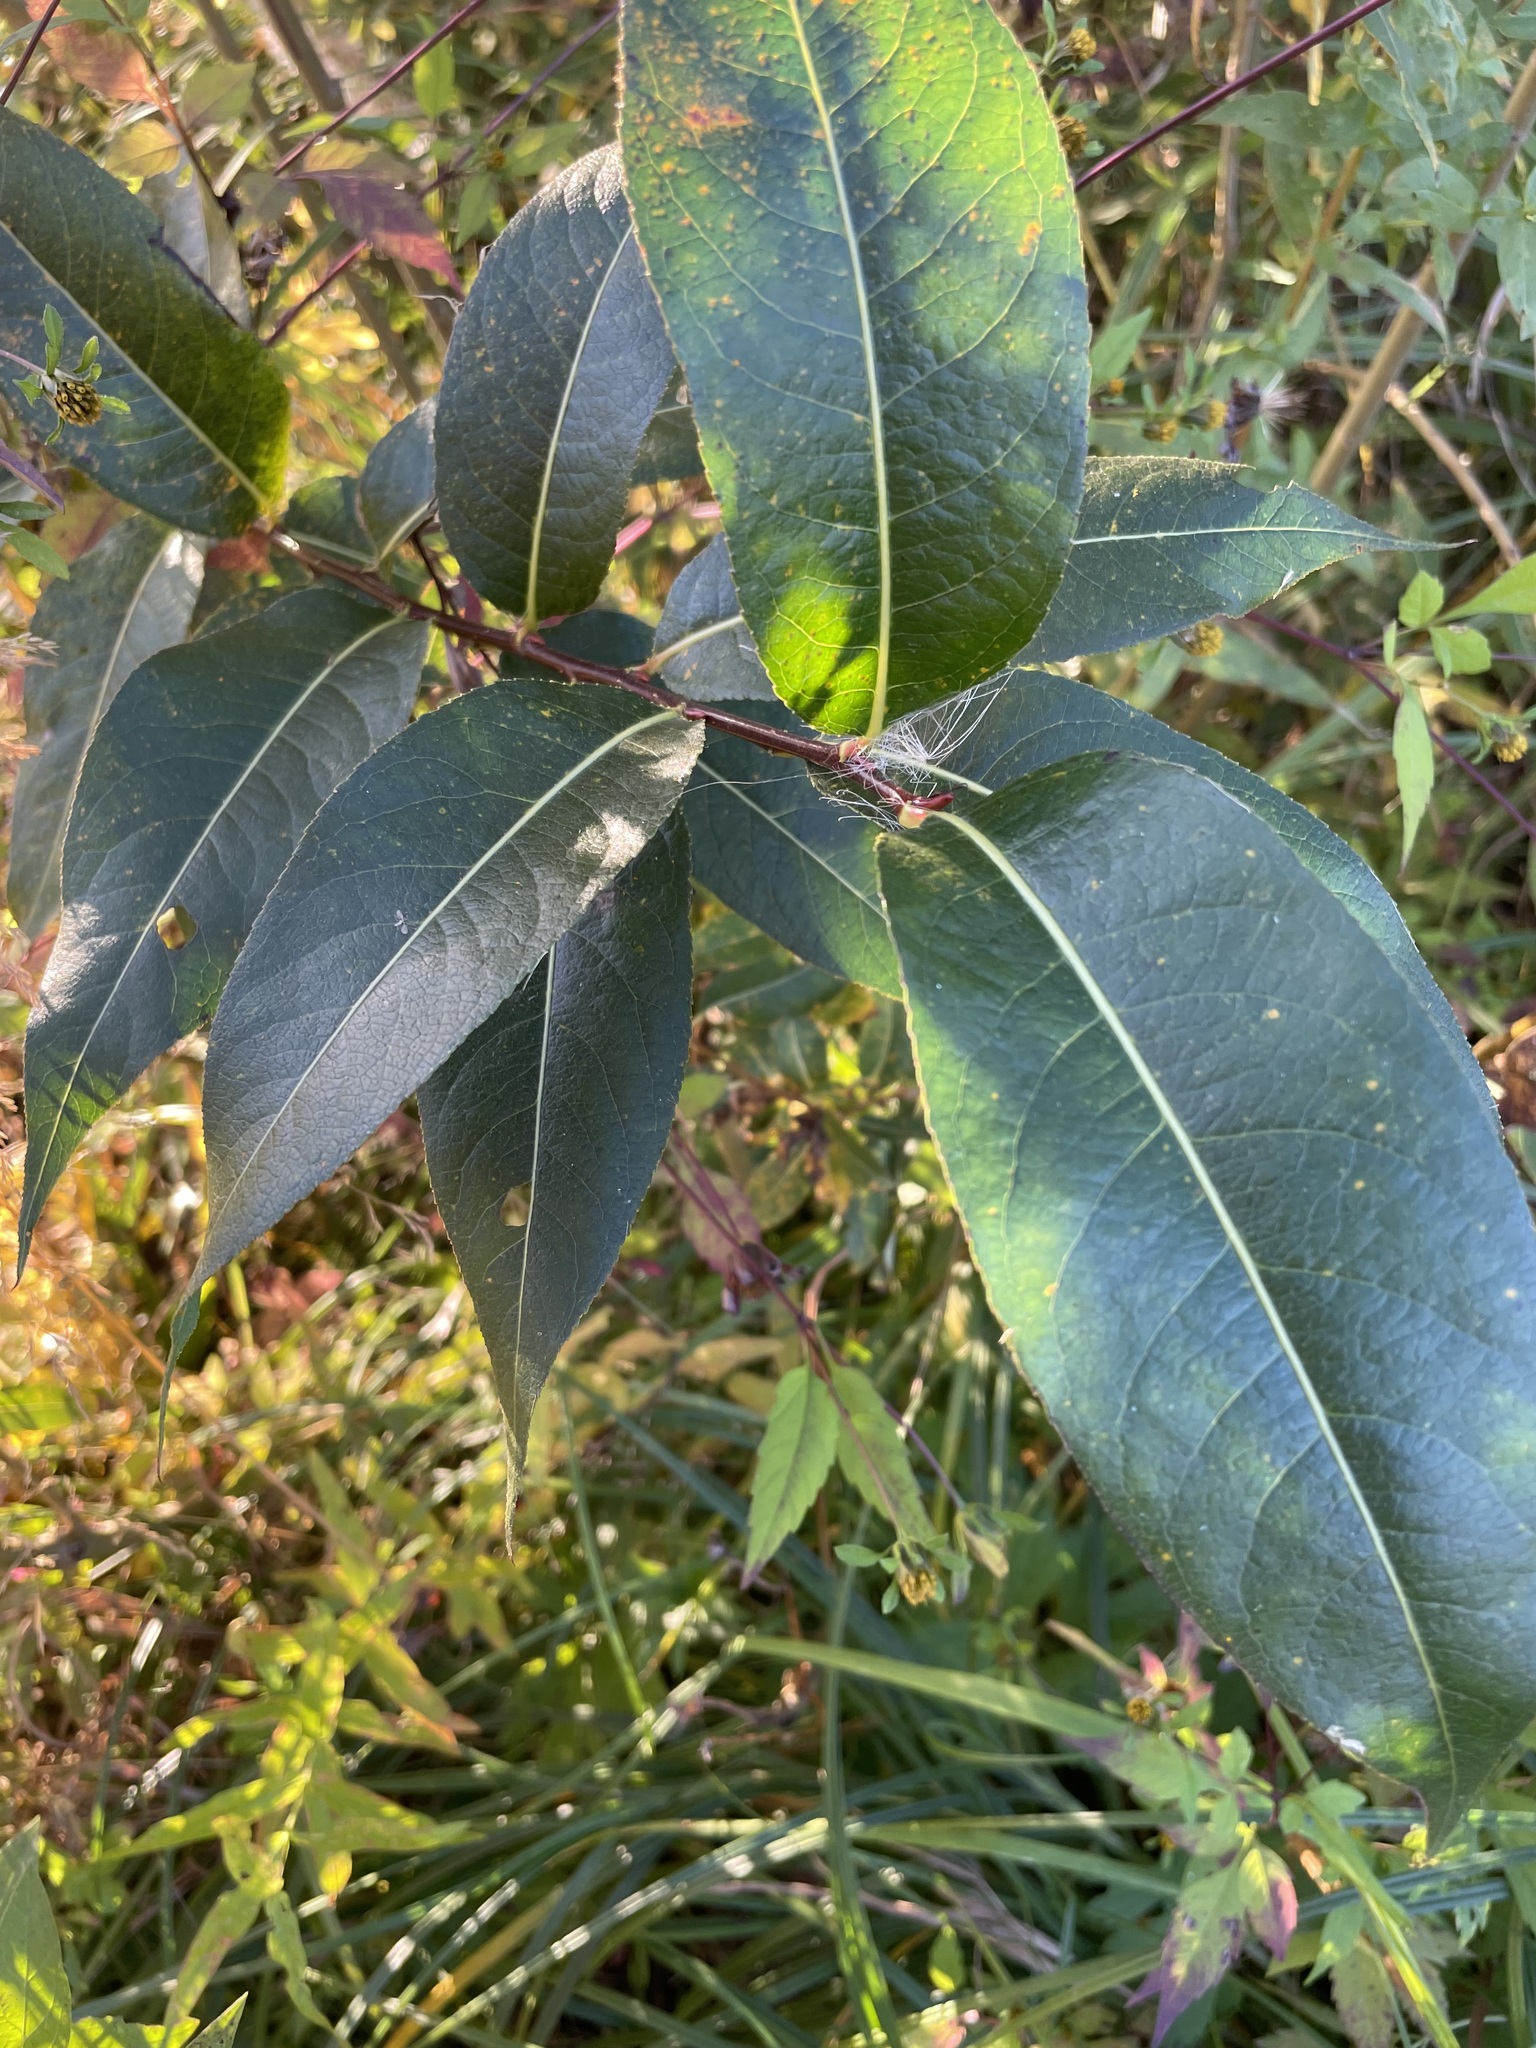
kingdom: Plantae
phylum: Tracheophyta
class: Magnoliopsida
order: Malpighiales
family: Salicaceae
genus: Salix
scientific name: Salix pentandra
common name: Bay willow
